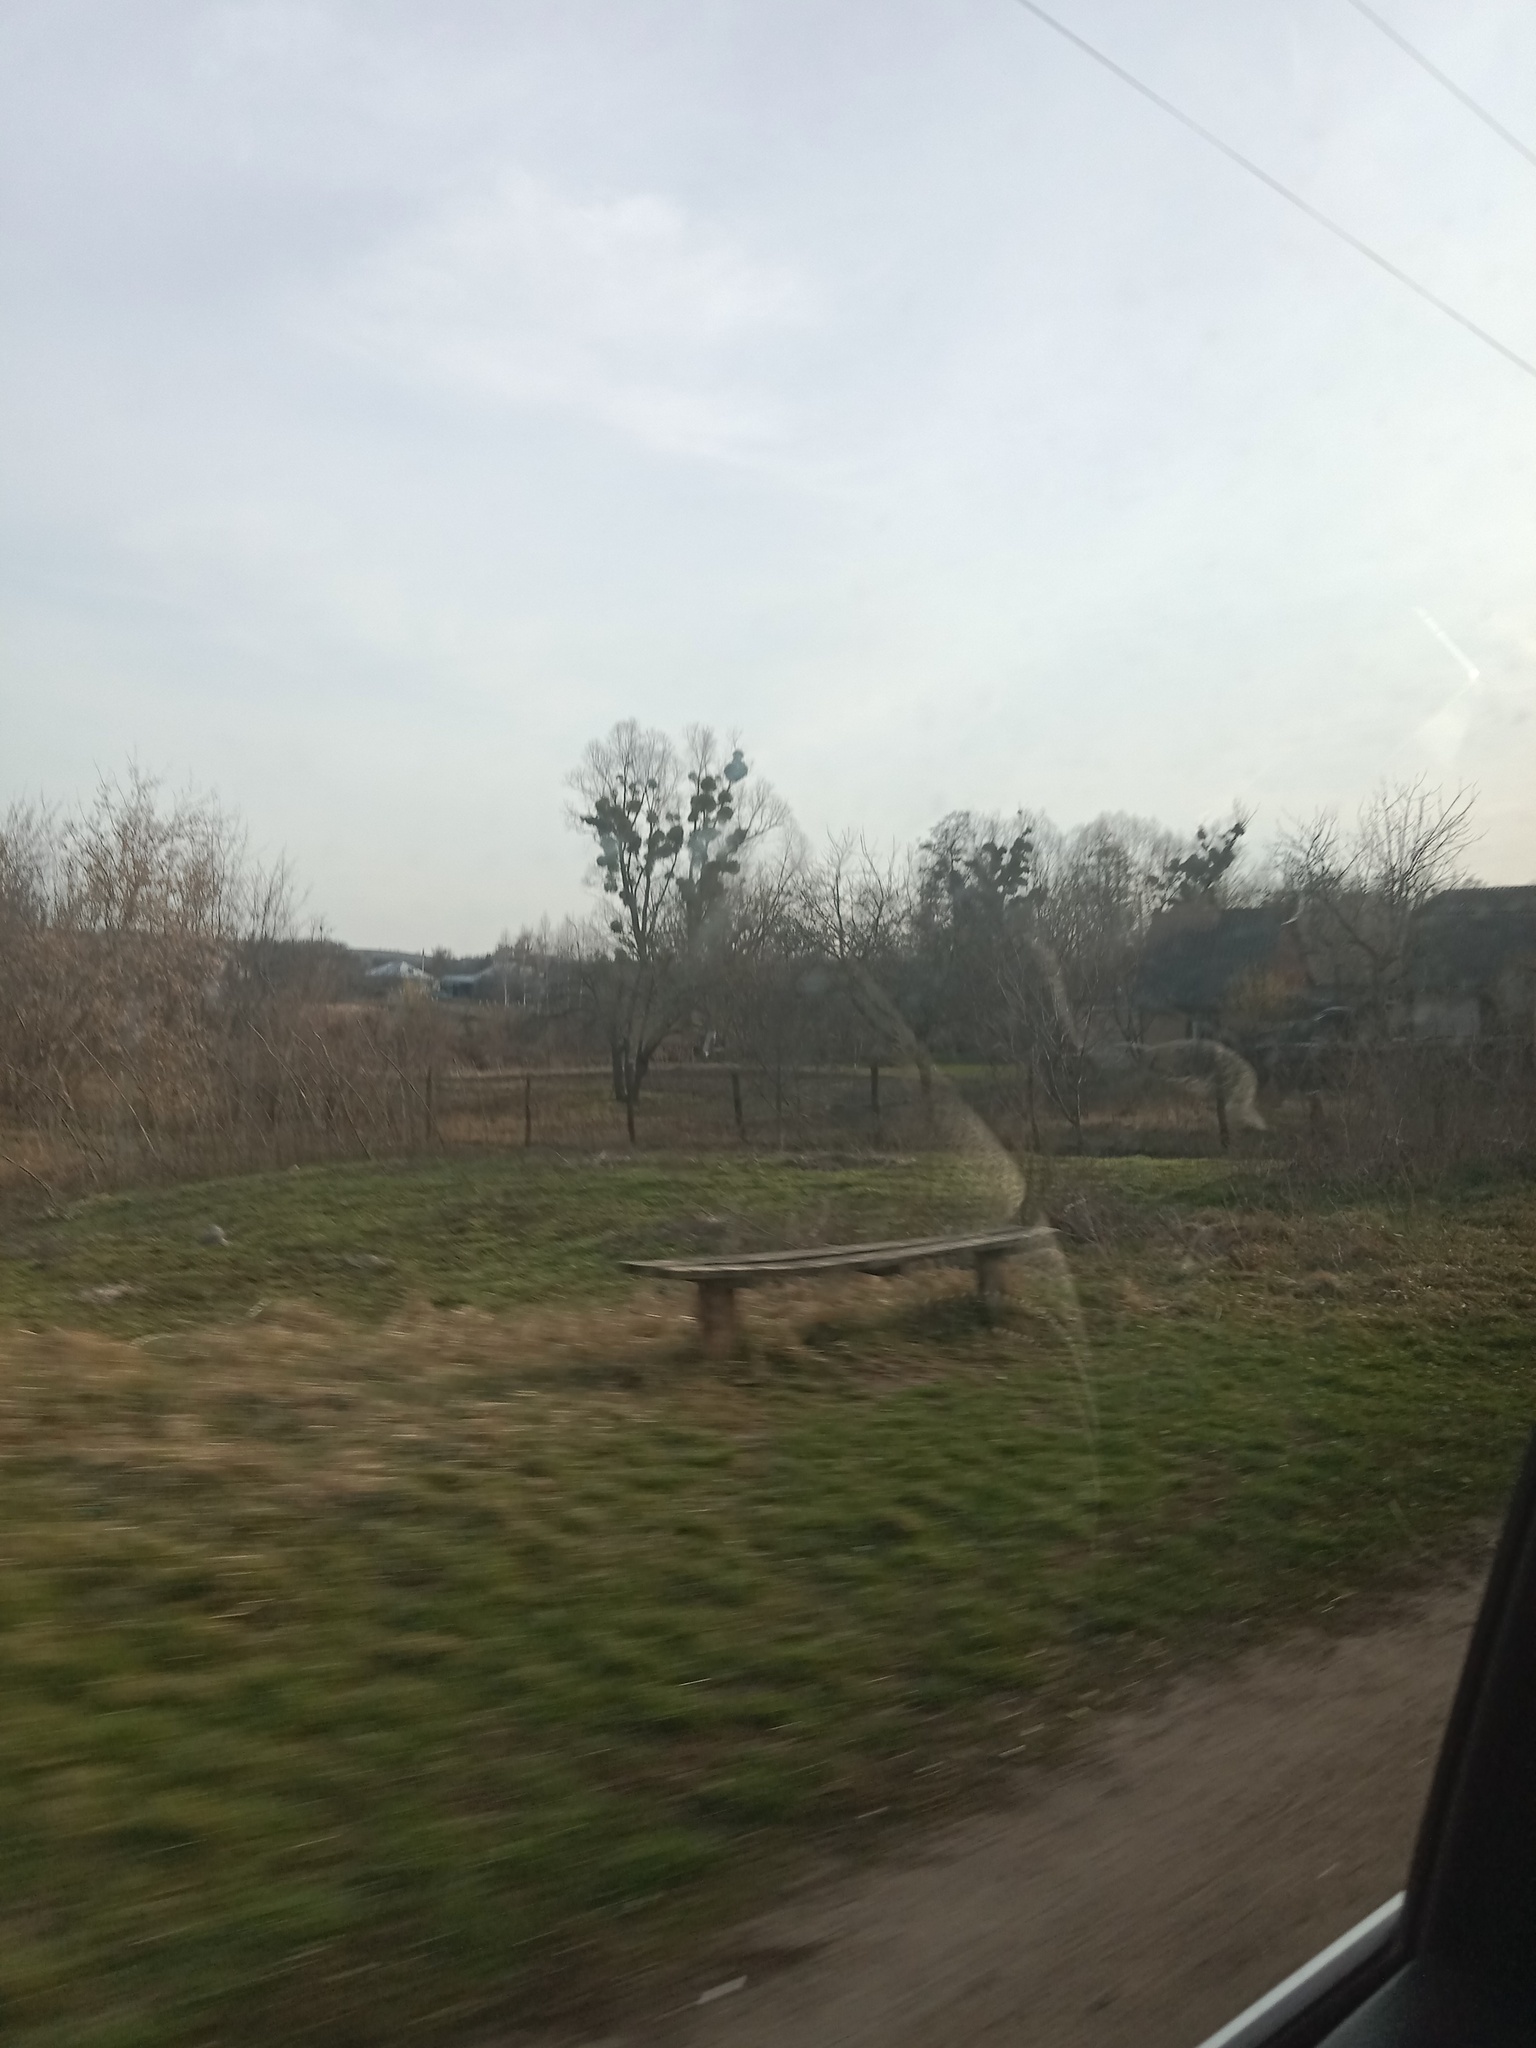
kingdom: Plantae
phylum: Tracheophyta
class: Magnoliopsida
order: Santalales
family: Viscaceae
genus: Viscum
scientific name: Viscum album
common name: Mistletoe
